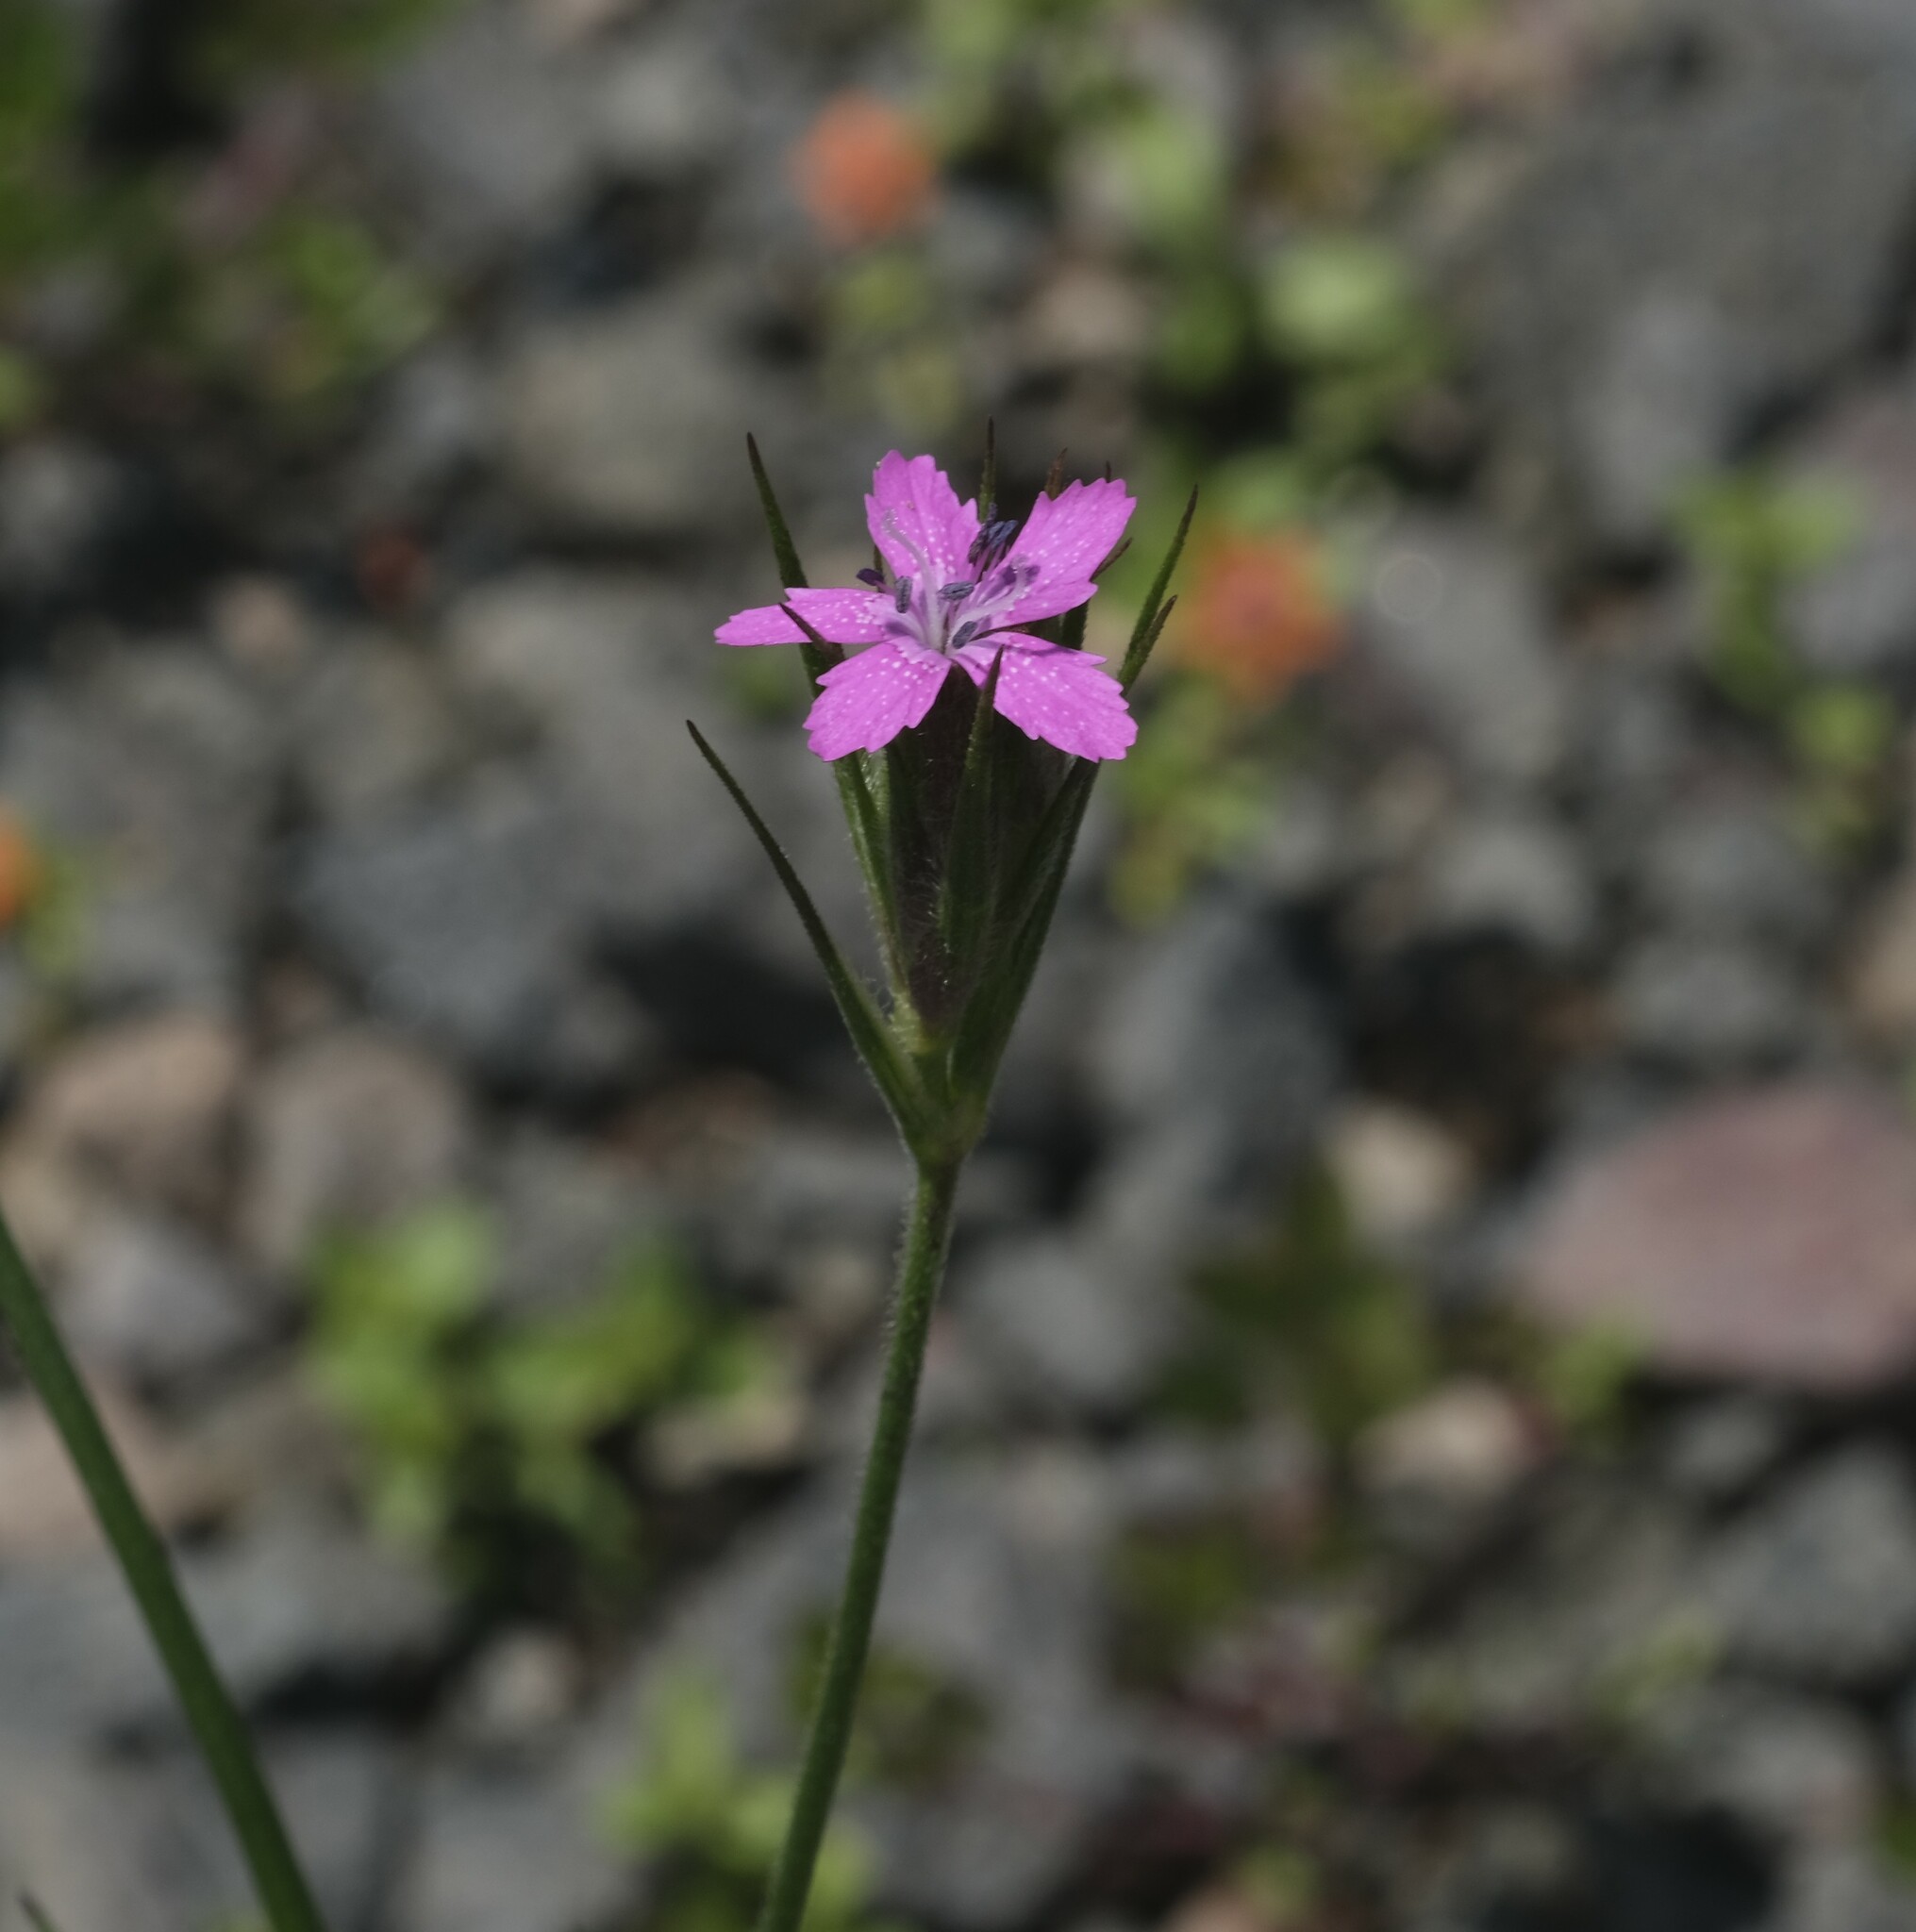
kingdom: Plantae
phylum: Tracheophyta
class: Magnoliopsida
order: Caryophyllales
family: Caryophyllaceae
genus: Dianthus
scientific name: Dianthus armeria
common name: Deptford pink
